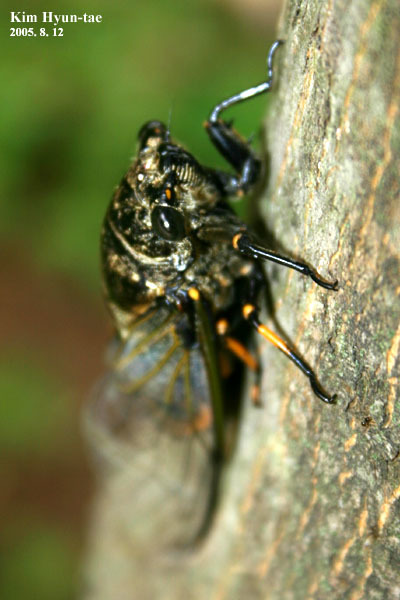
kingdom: Animalia
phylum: Arthropoda
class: Insecta
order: Hemiptera
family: Cicadidae
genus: Cryptotympana
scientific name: Cryptotympana atrata
